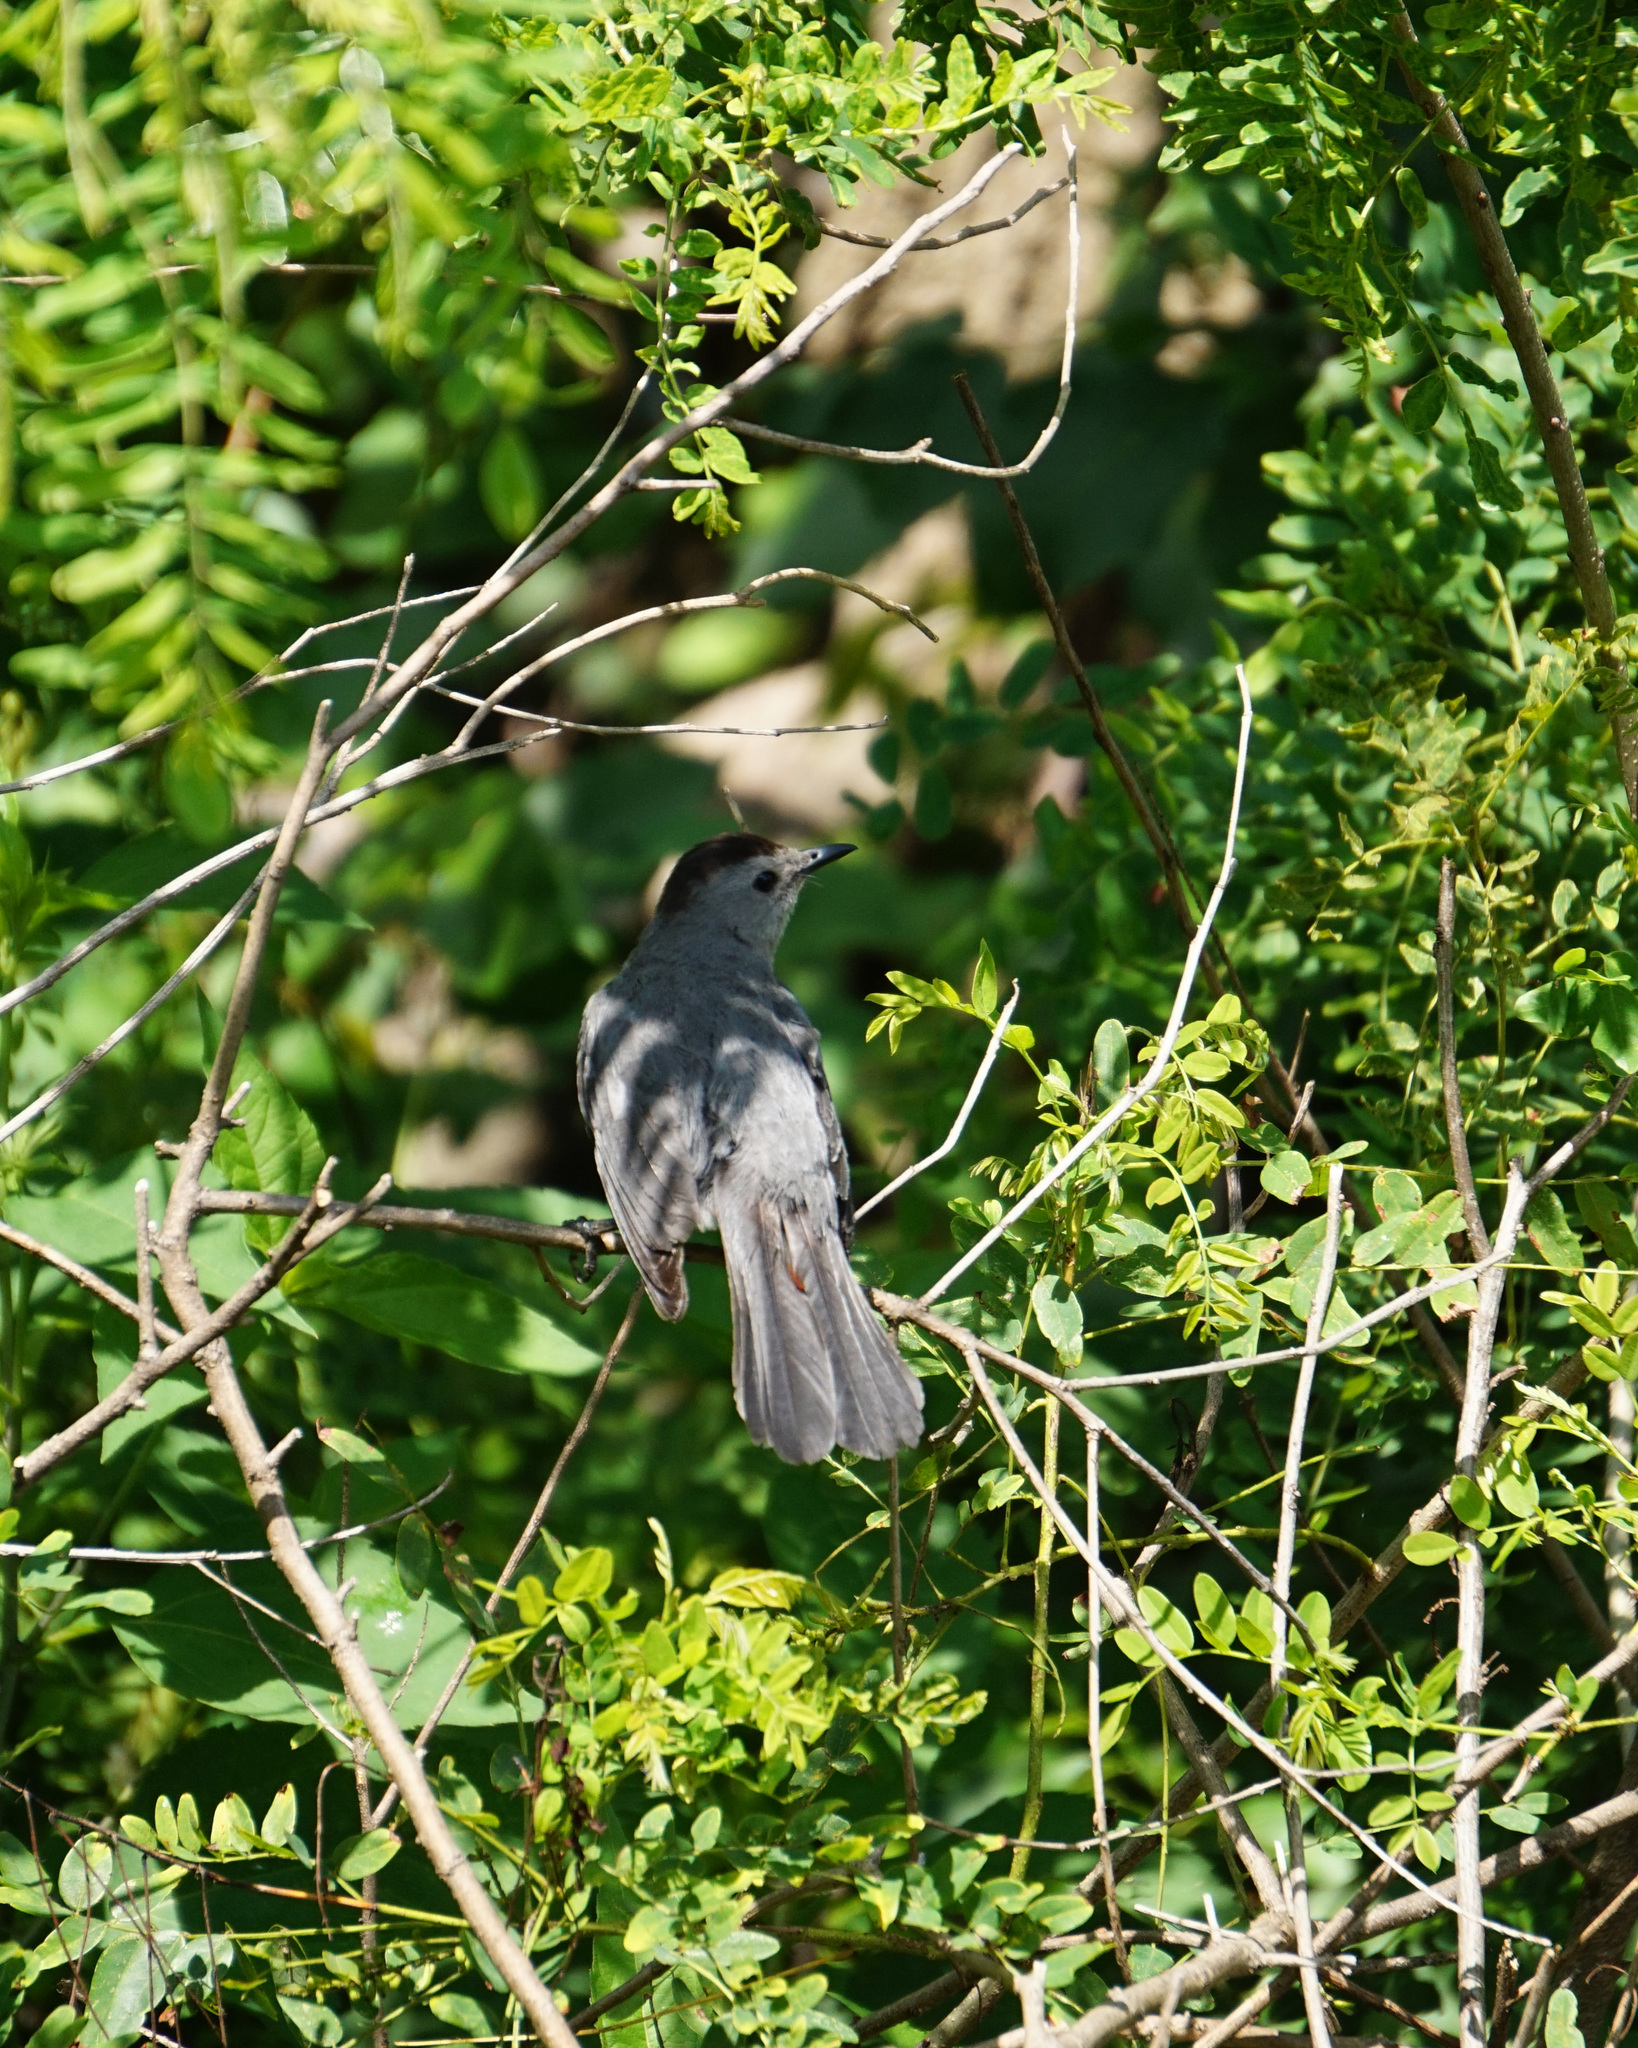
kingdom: Animalia
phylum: Chordata
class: Aves
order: Passeriformes
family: Mimidae
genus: Dumetella
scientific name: Dumetella carolinensis
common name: Gray catbird
